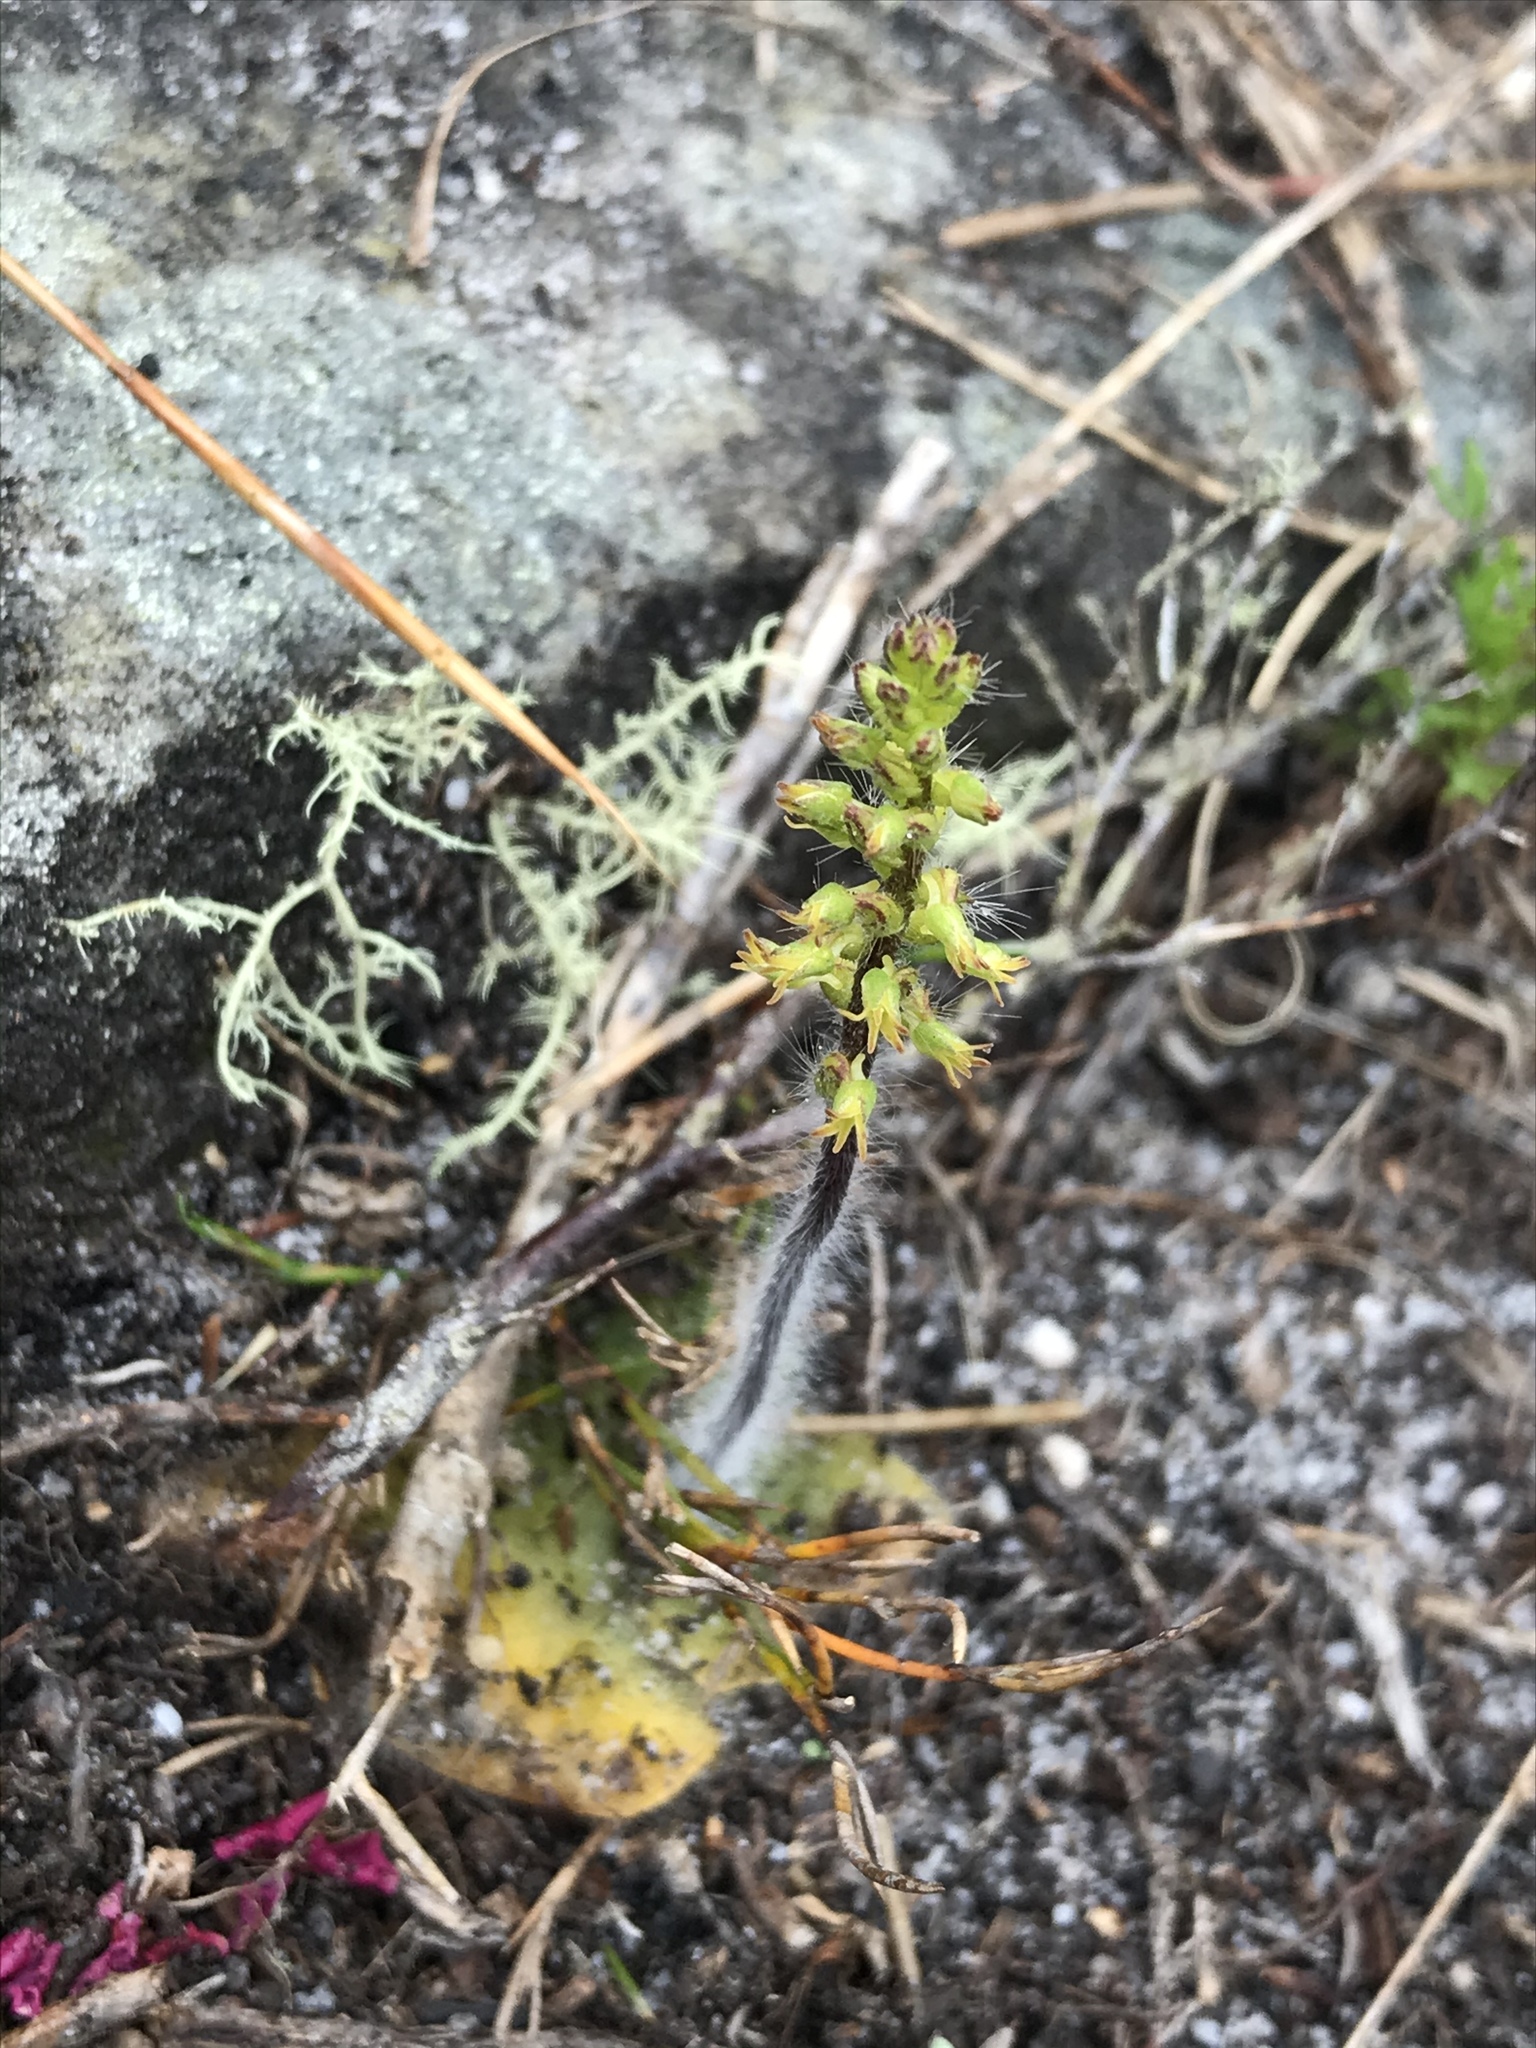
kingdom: Plantae
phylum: Tracheophyta
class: Liliopsida
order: Asparagales
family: Orchidaceae
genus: Holothrix
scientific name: Holothrix villosa
